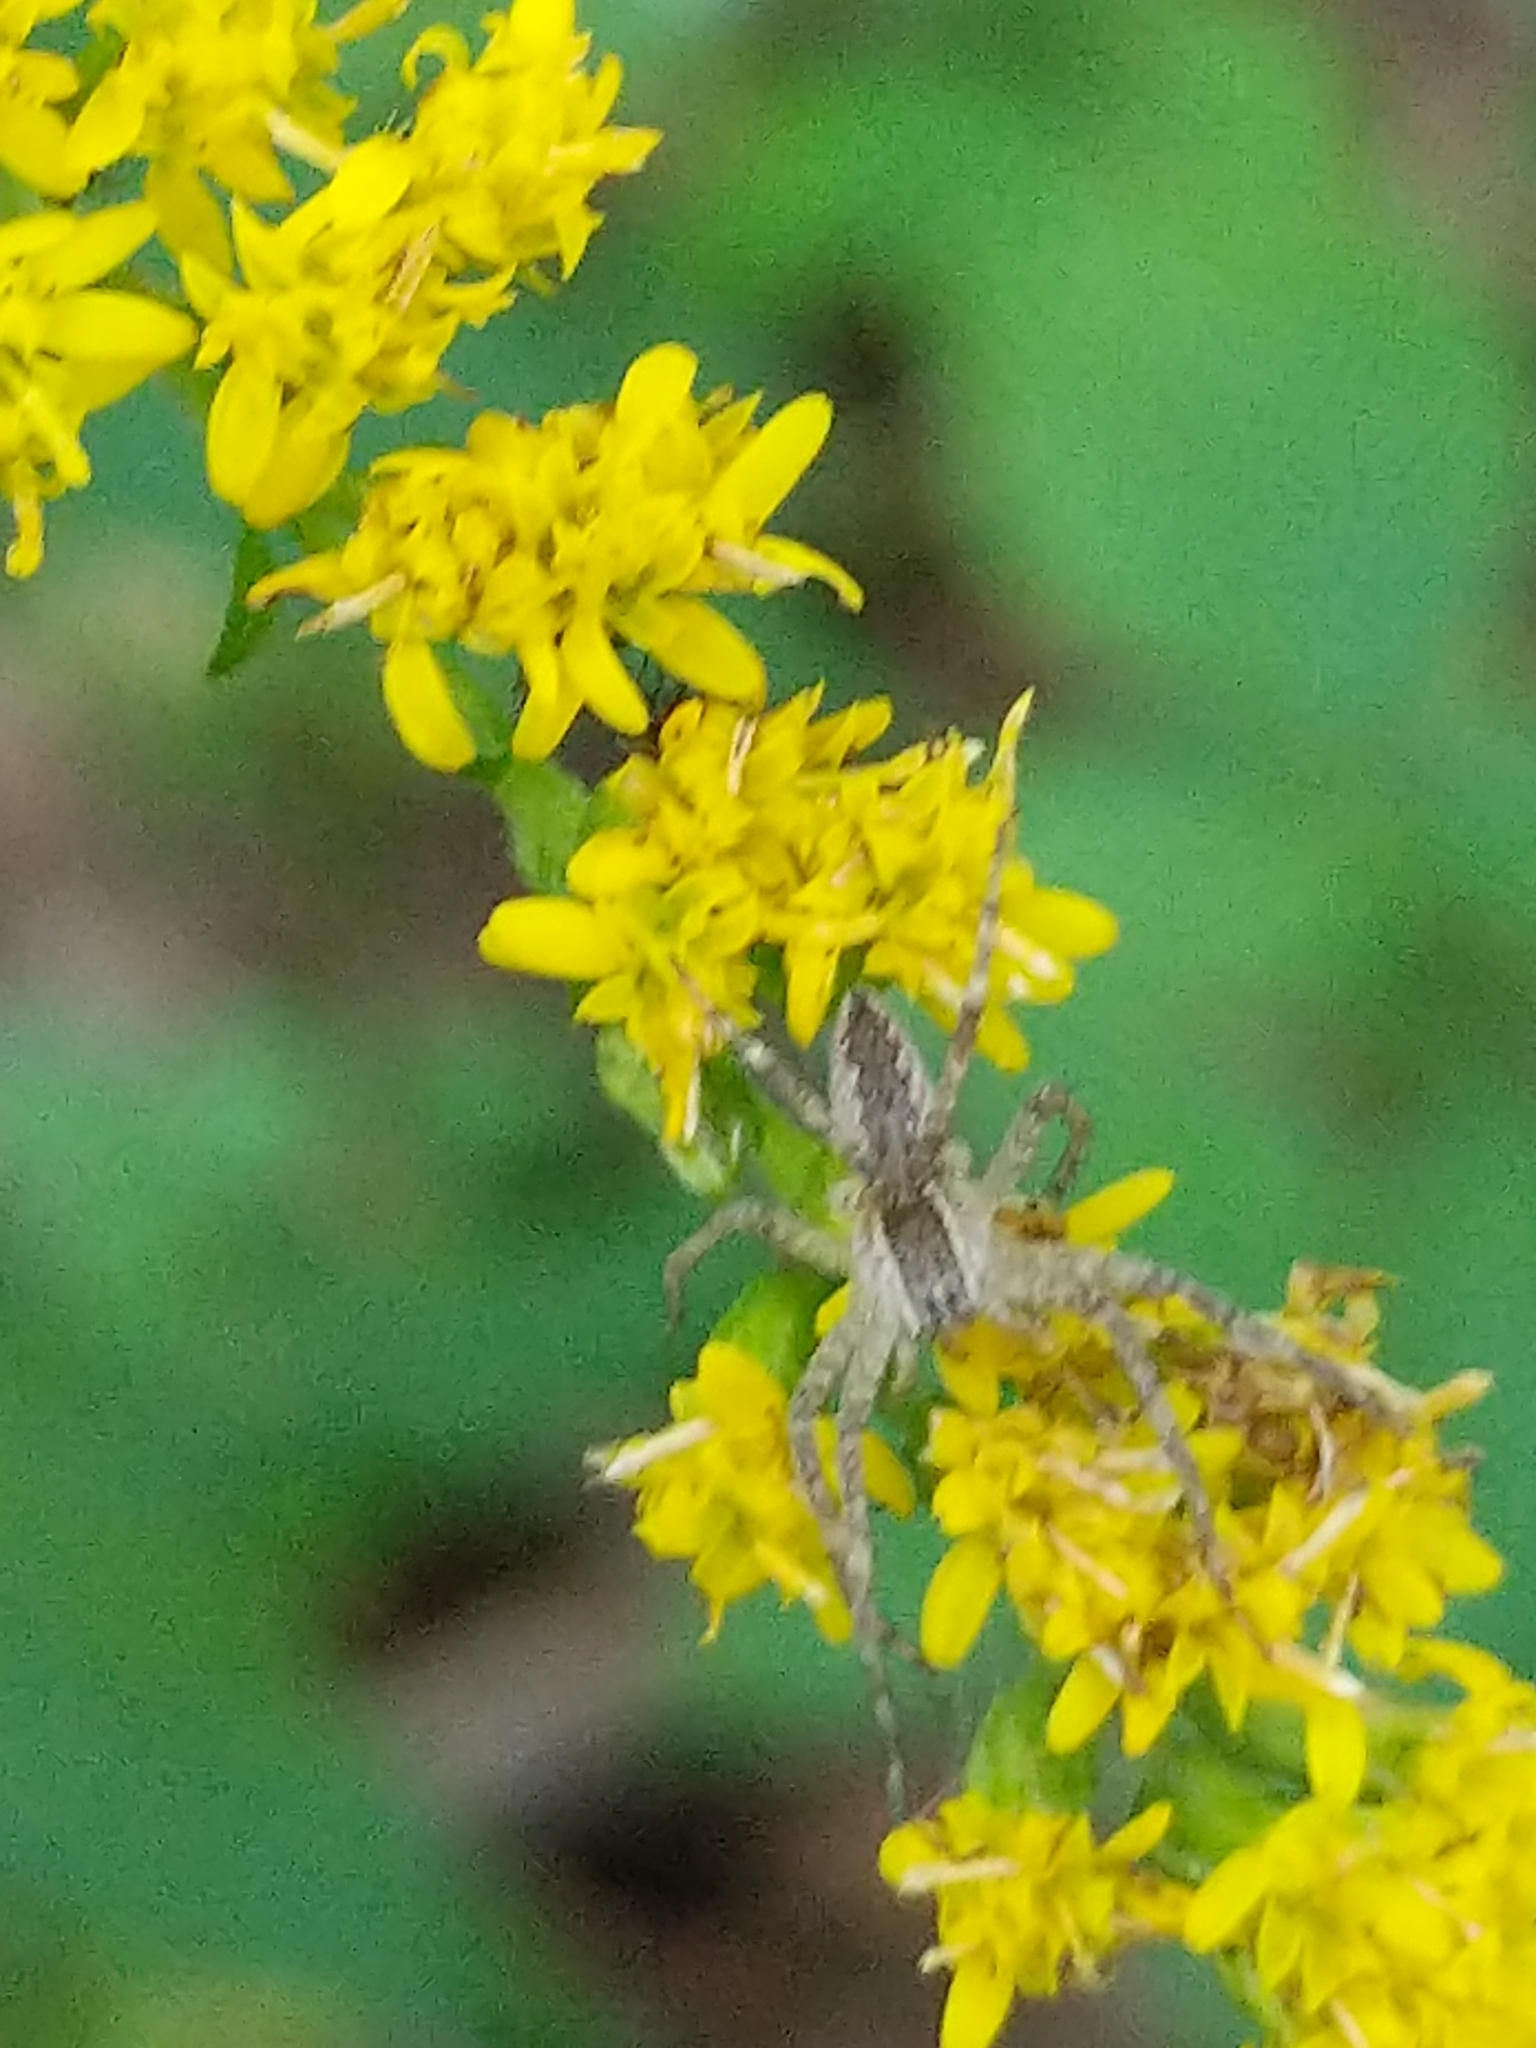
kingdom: Animalia
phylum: Arthropoda
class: Arachnida
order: Araneae
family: Pisauridae
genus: Pisaurina
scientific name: Pisaurina mira
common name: American nursery web spider
